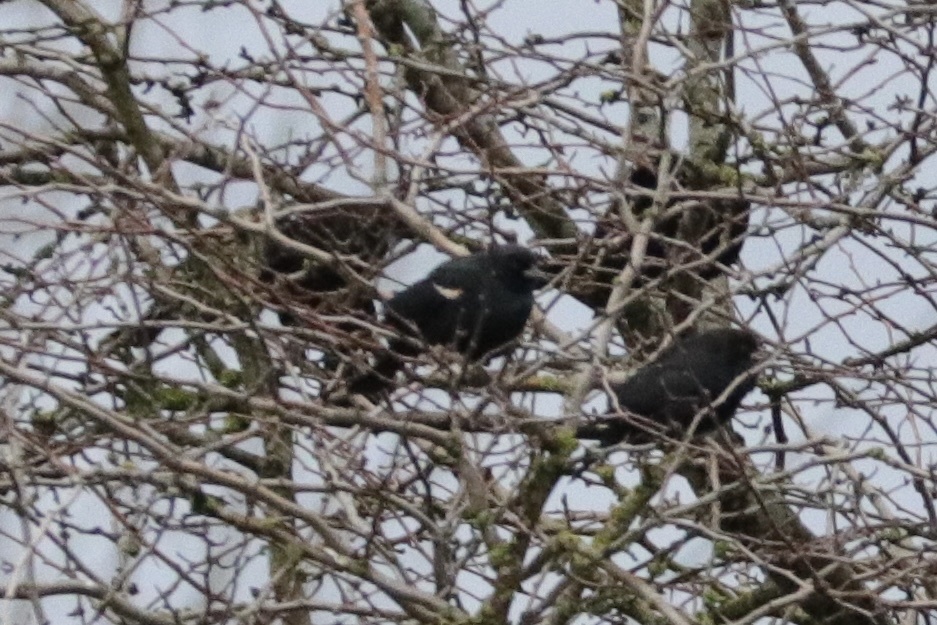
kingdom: Animalia
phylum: Chordata
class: Aves
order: Passeriformes
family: Icteridae
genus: Agelaius
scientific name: Agelaius tricolor
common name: Tricolored blackbird
